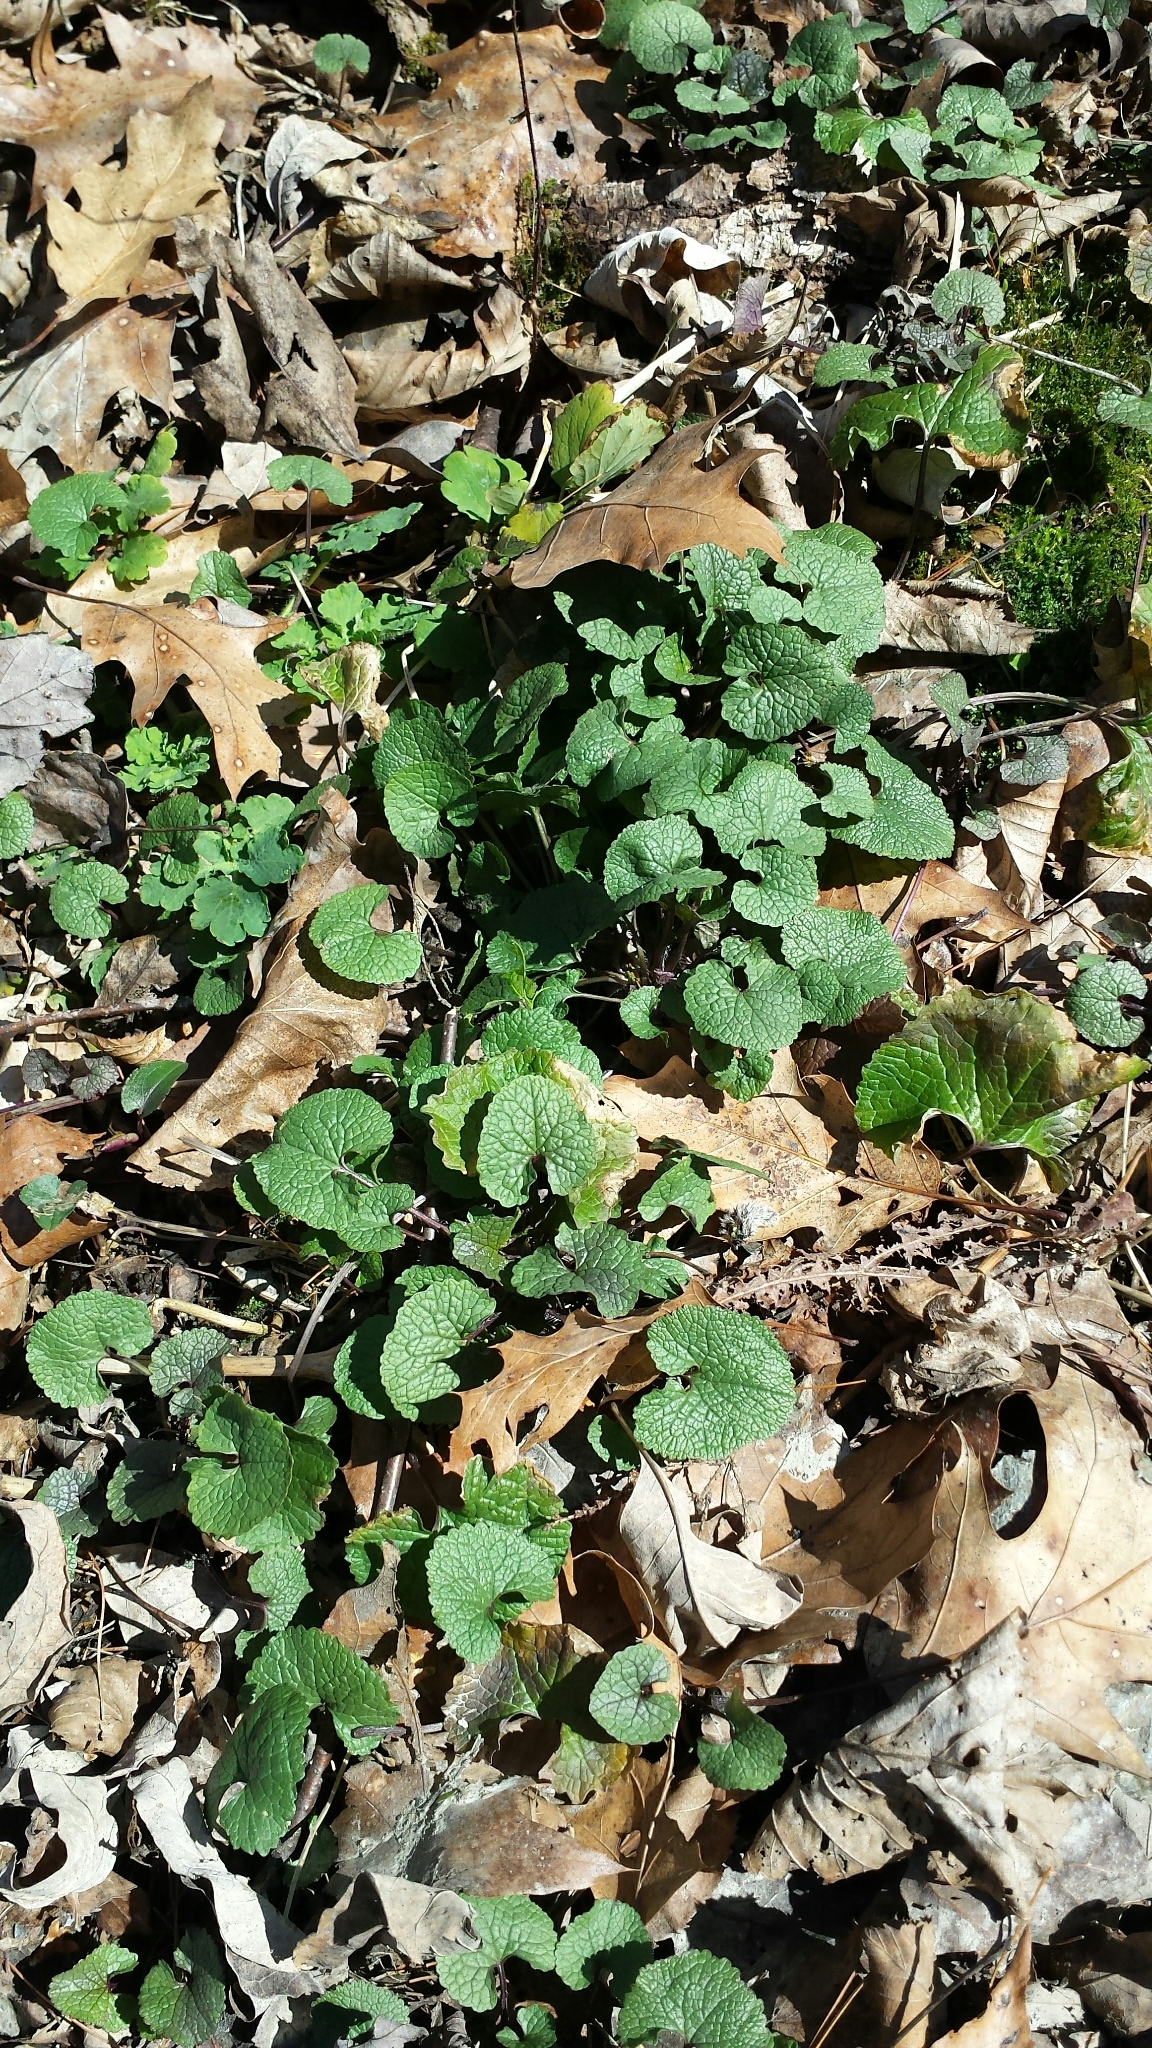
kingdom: Plantae
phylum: Tracheophyta
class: Magnoliopsida
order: Brassicales
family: Brassicaceae
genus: Alliaria
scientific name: Alliaria petiolata
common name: Garlic mustard
